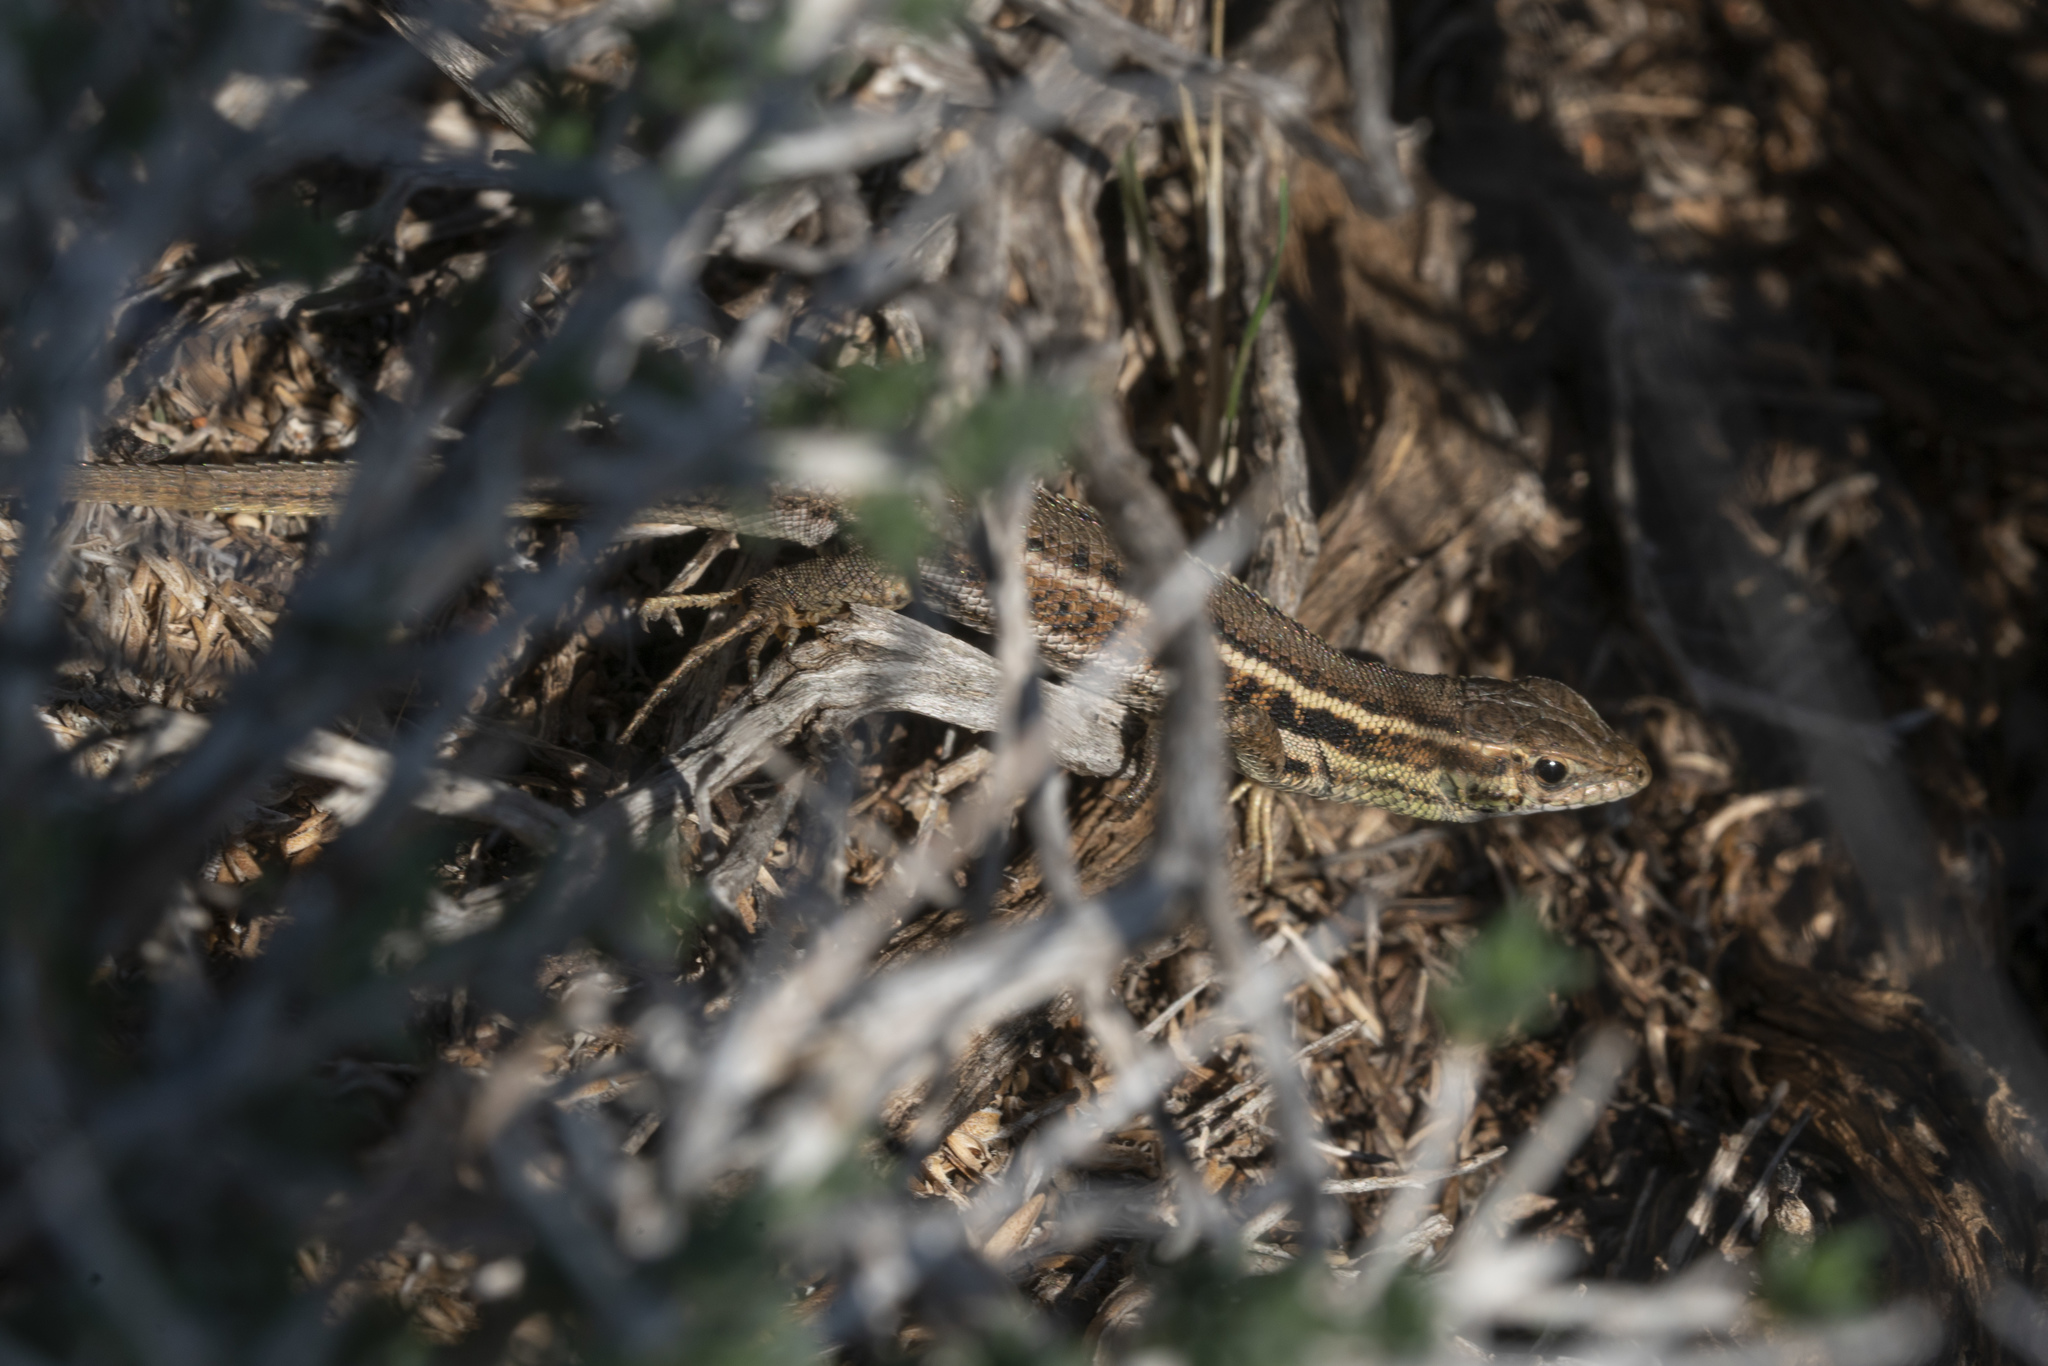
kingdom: Animalia
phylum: Chordata
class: Squamata
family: Lacertidae
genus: Ophisops
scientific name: Ophisops elegans
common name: Snake-eyed lizard
